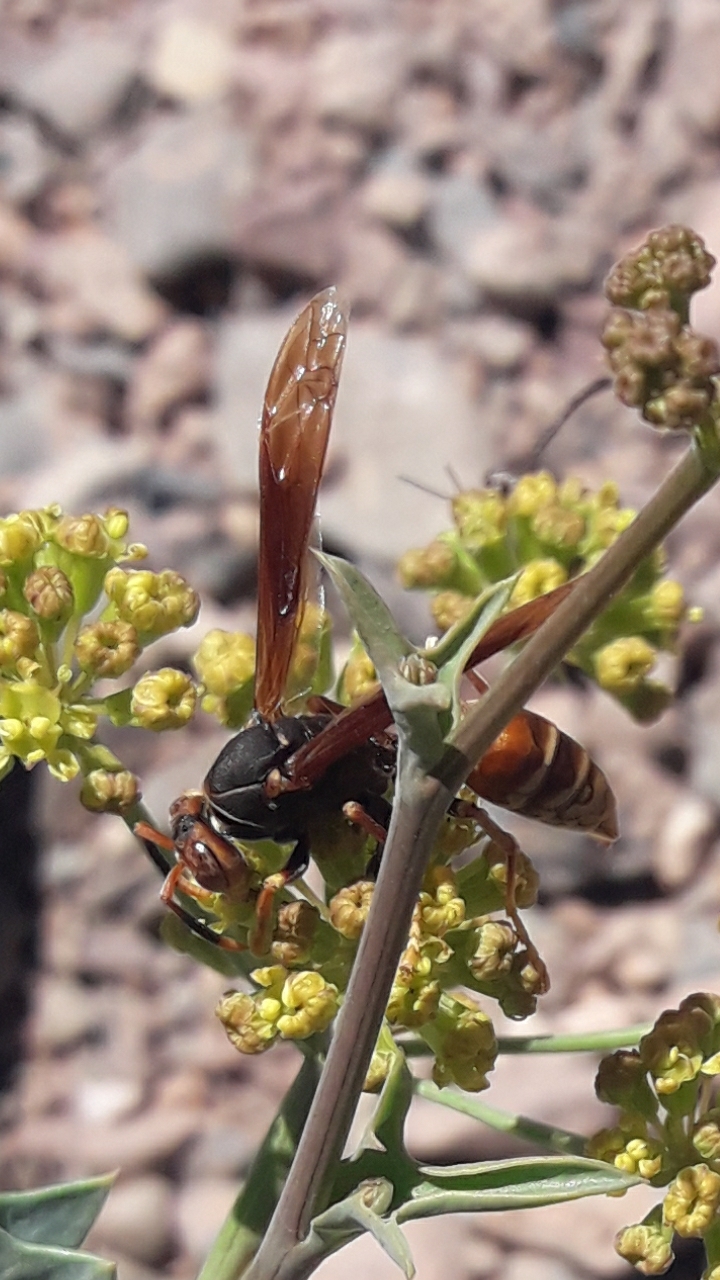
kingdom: Animalia
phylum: Arthropoda
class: Insecta
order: Hymenoptera
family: Eumenidae
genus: Polistes
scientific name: Polistes buyssoni
